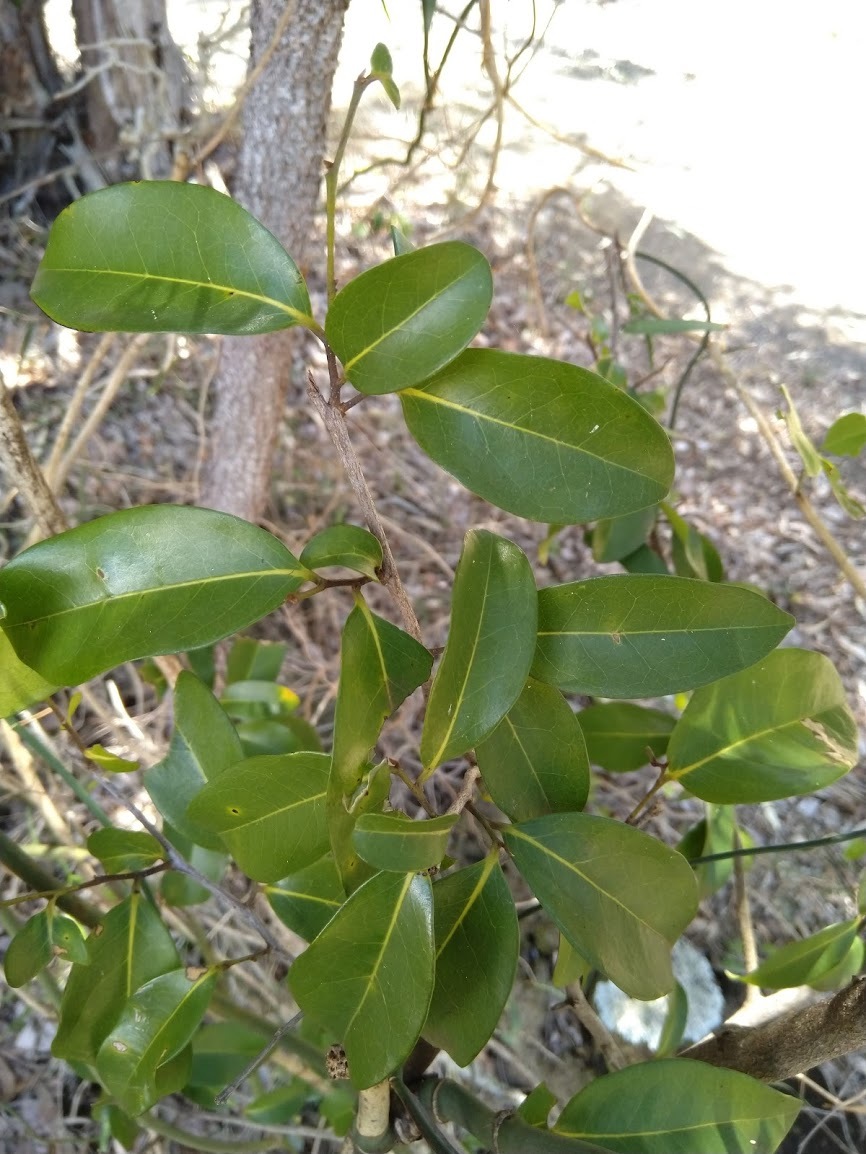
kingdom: Plantae
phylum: Tracheophyta
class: Magnoliopsida
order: Magnoliales
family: Annonaceae
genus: Hubera
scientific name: Hubera nitidissima
